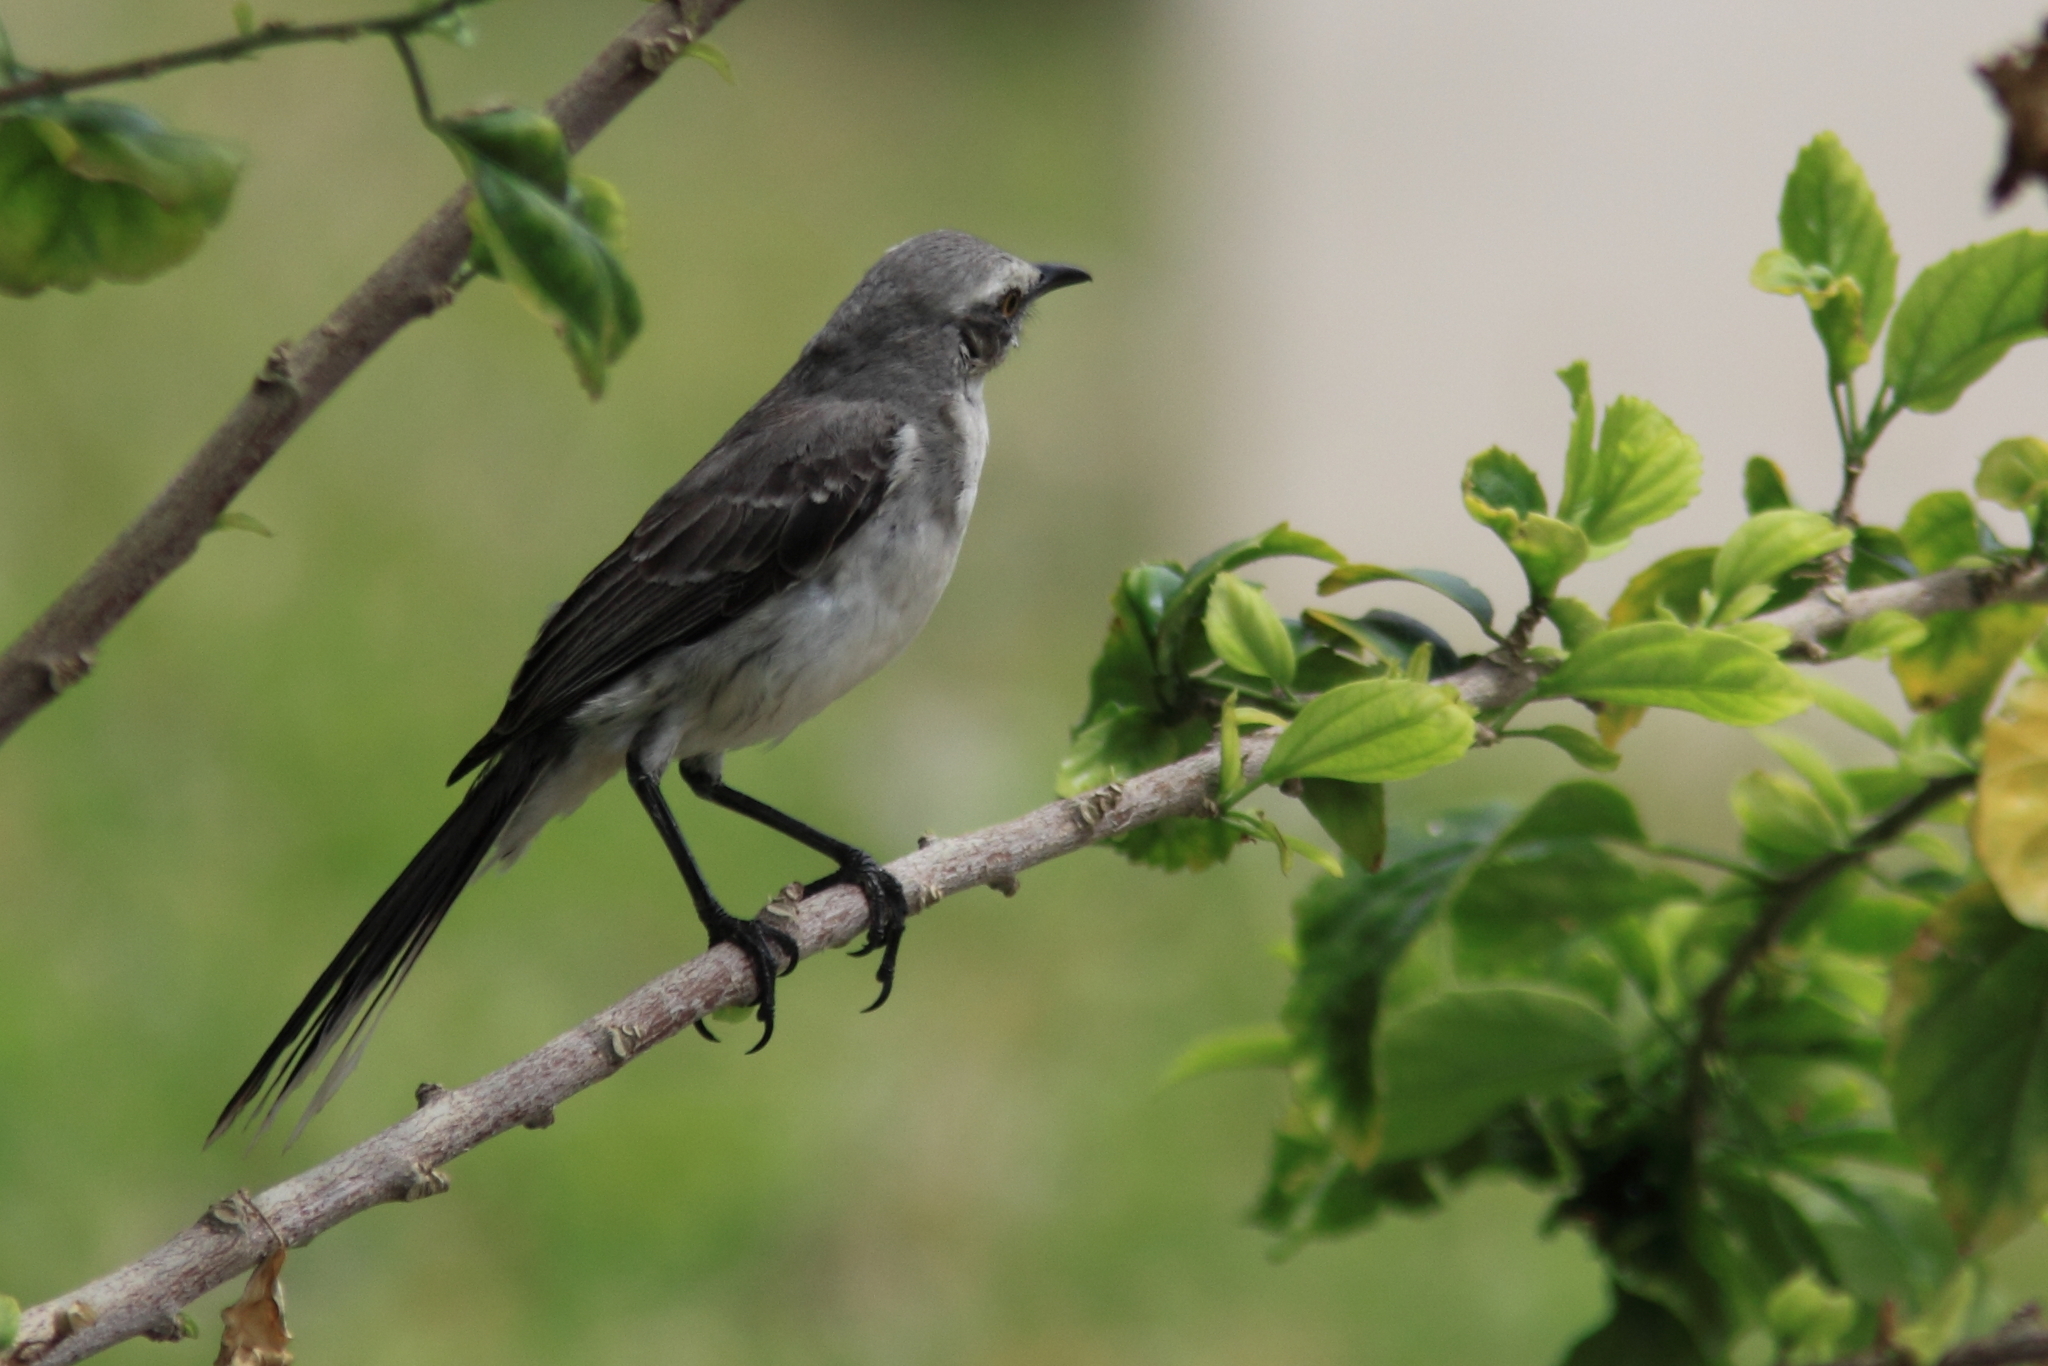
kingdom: Animalia
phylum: Chordata
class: Aves
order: Passeriformes
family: Mimidae
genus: Mimus
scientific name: Mimus gilvus
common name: Tropical mockingbird
